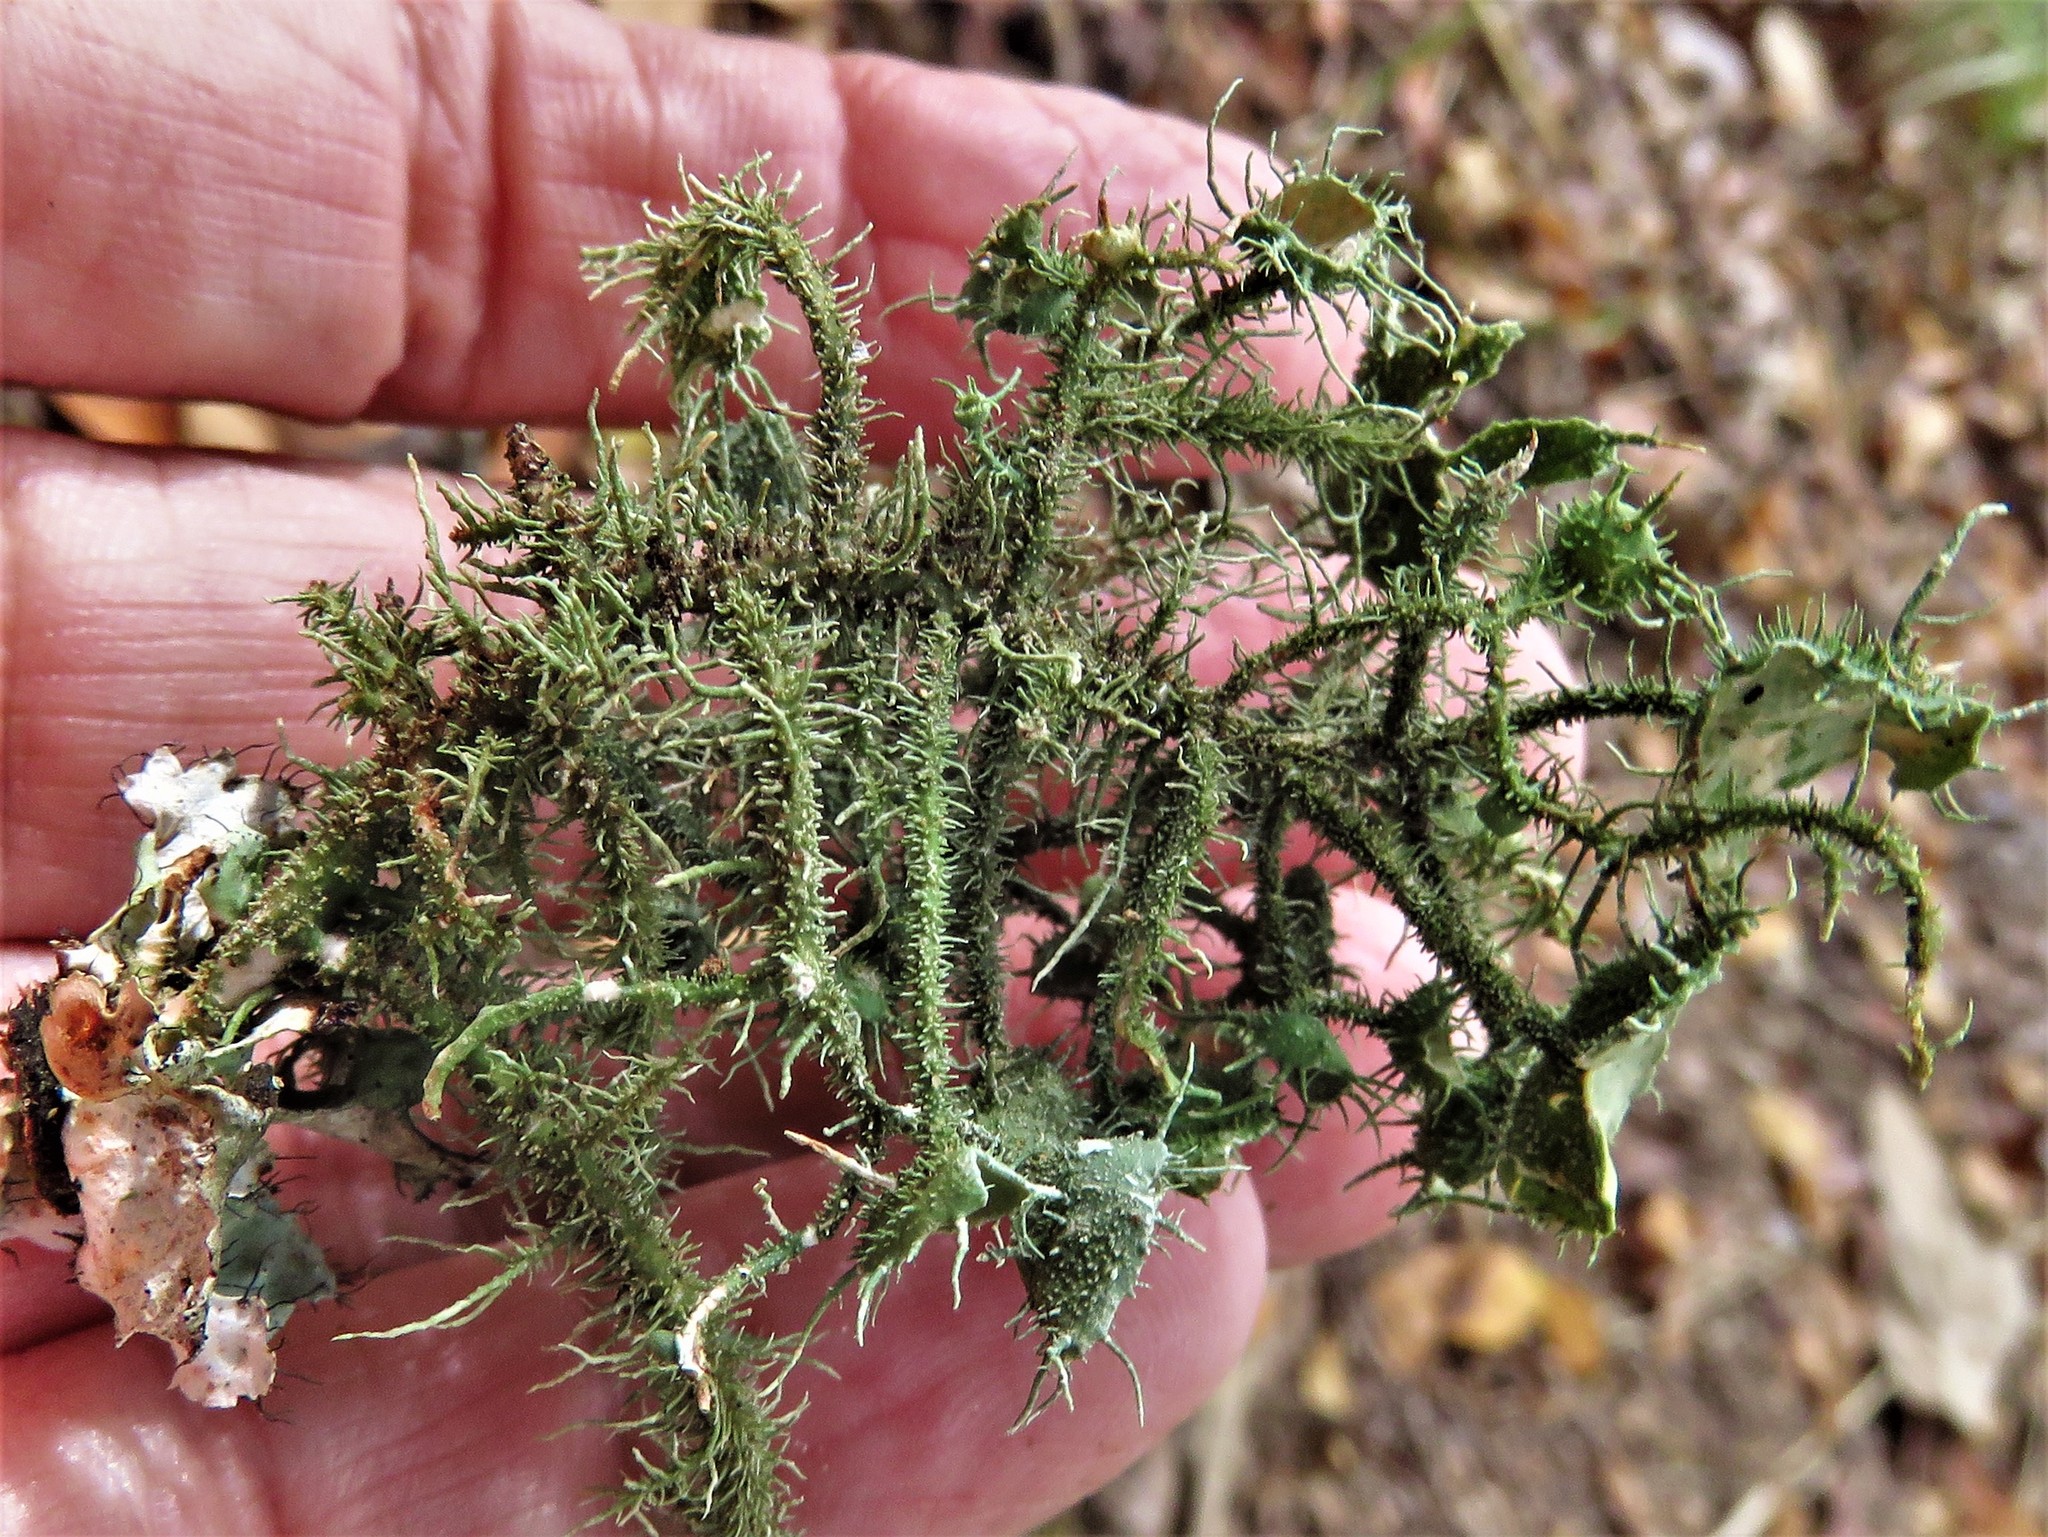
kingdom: Fungi
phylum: Ascomycota
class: Lecanoromycetes
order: Lecanorales
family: Parmeliaceae
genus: Usnea
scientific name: Usnea strigosa
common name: Bushy beard lichen
